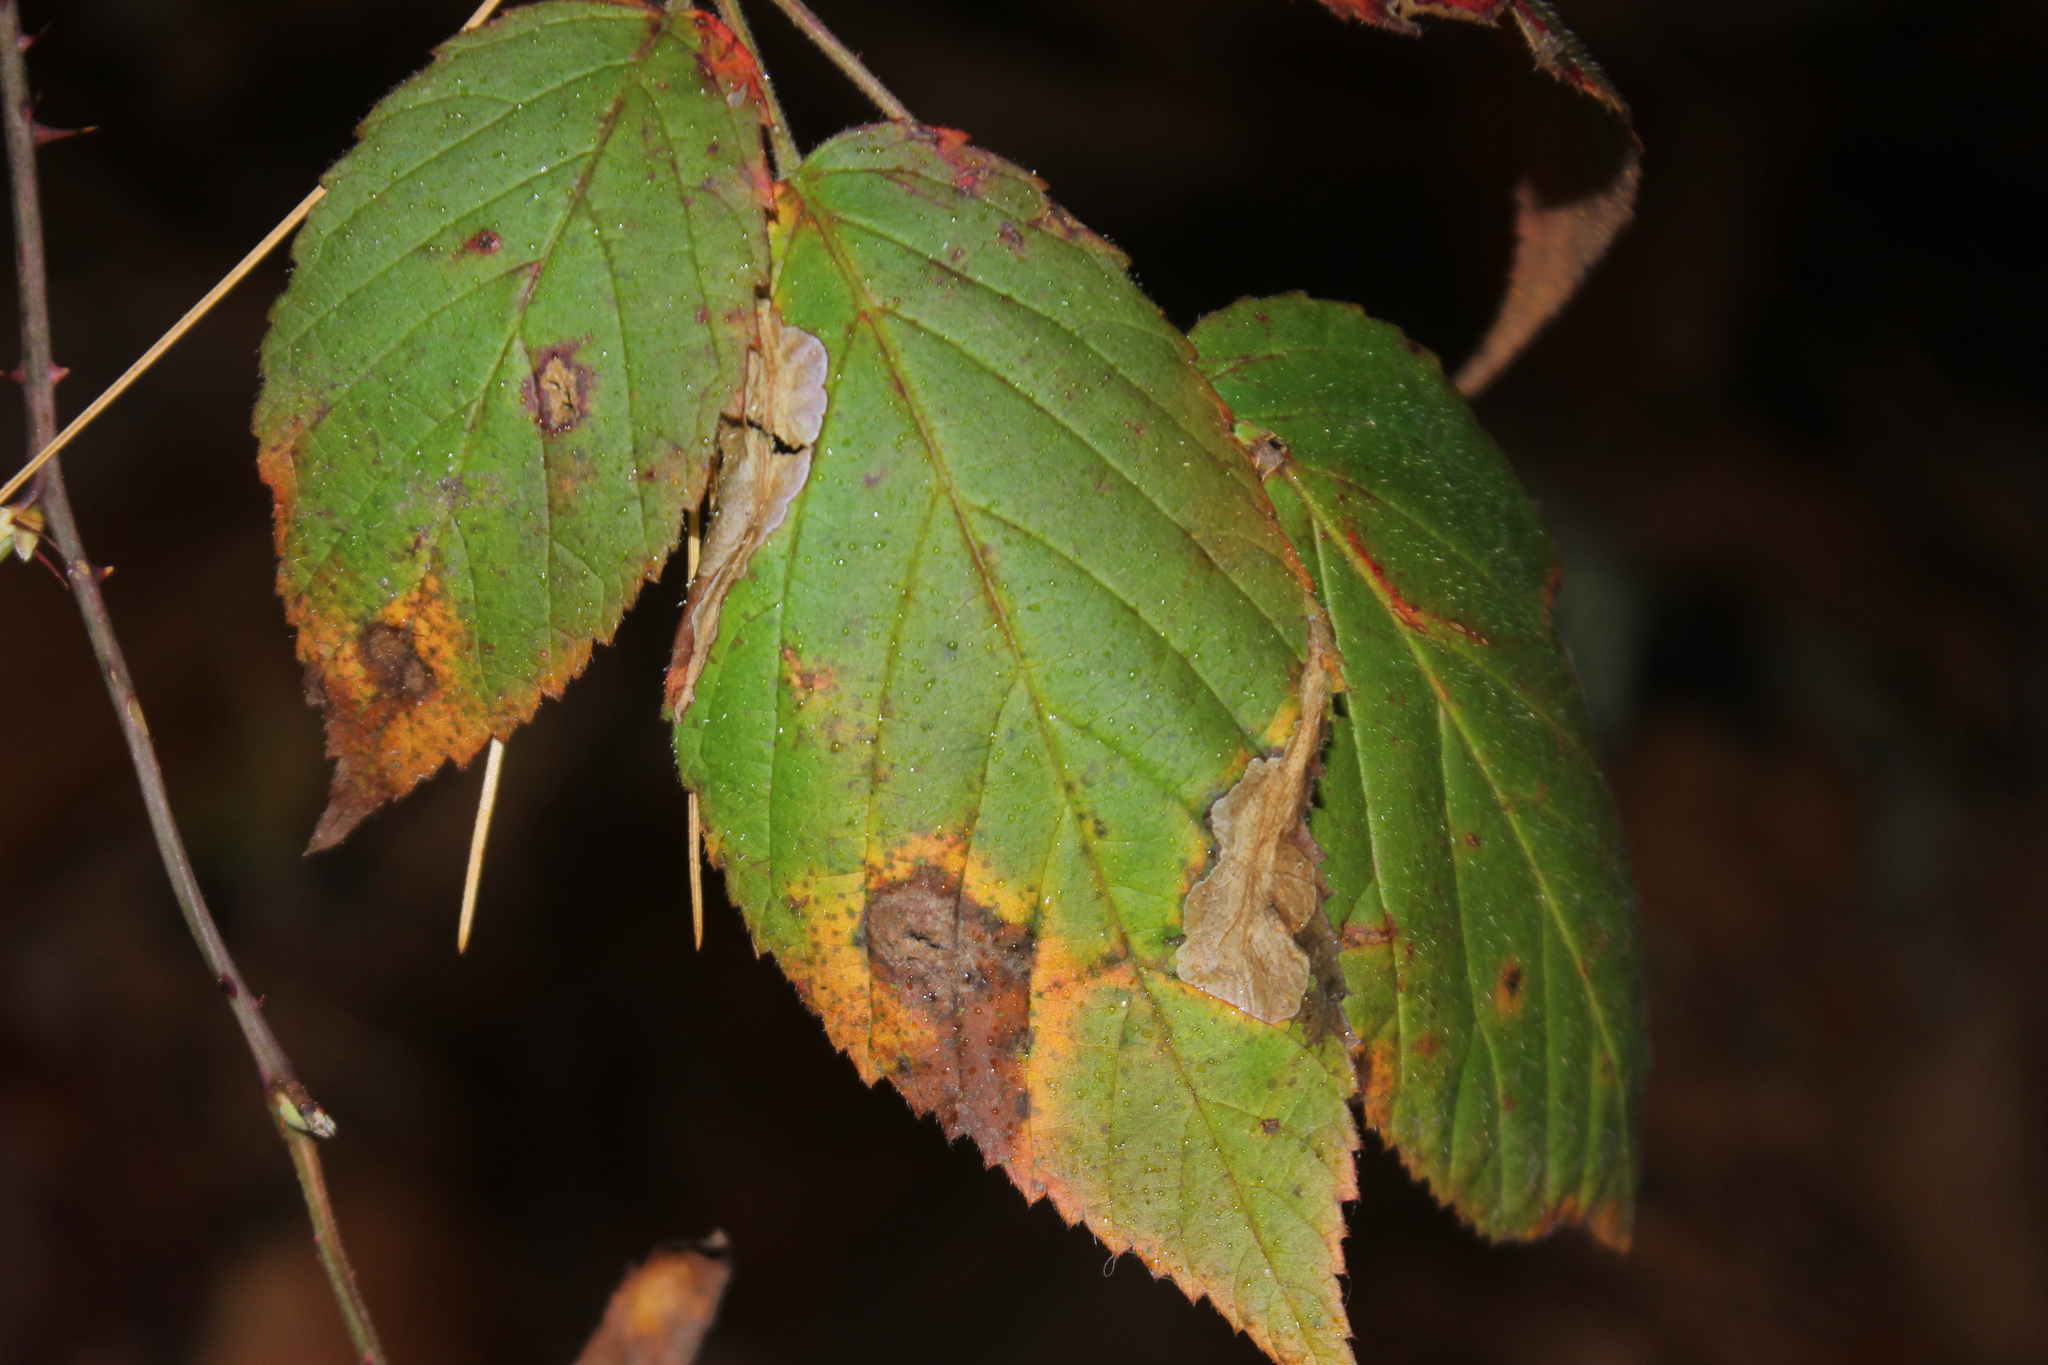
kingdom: Animalia
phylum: Arthropoda
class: Insecta
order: Lepidoptera
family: Tischeriidae
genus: Coptotriche
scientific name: Coptotriche aenea
